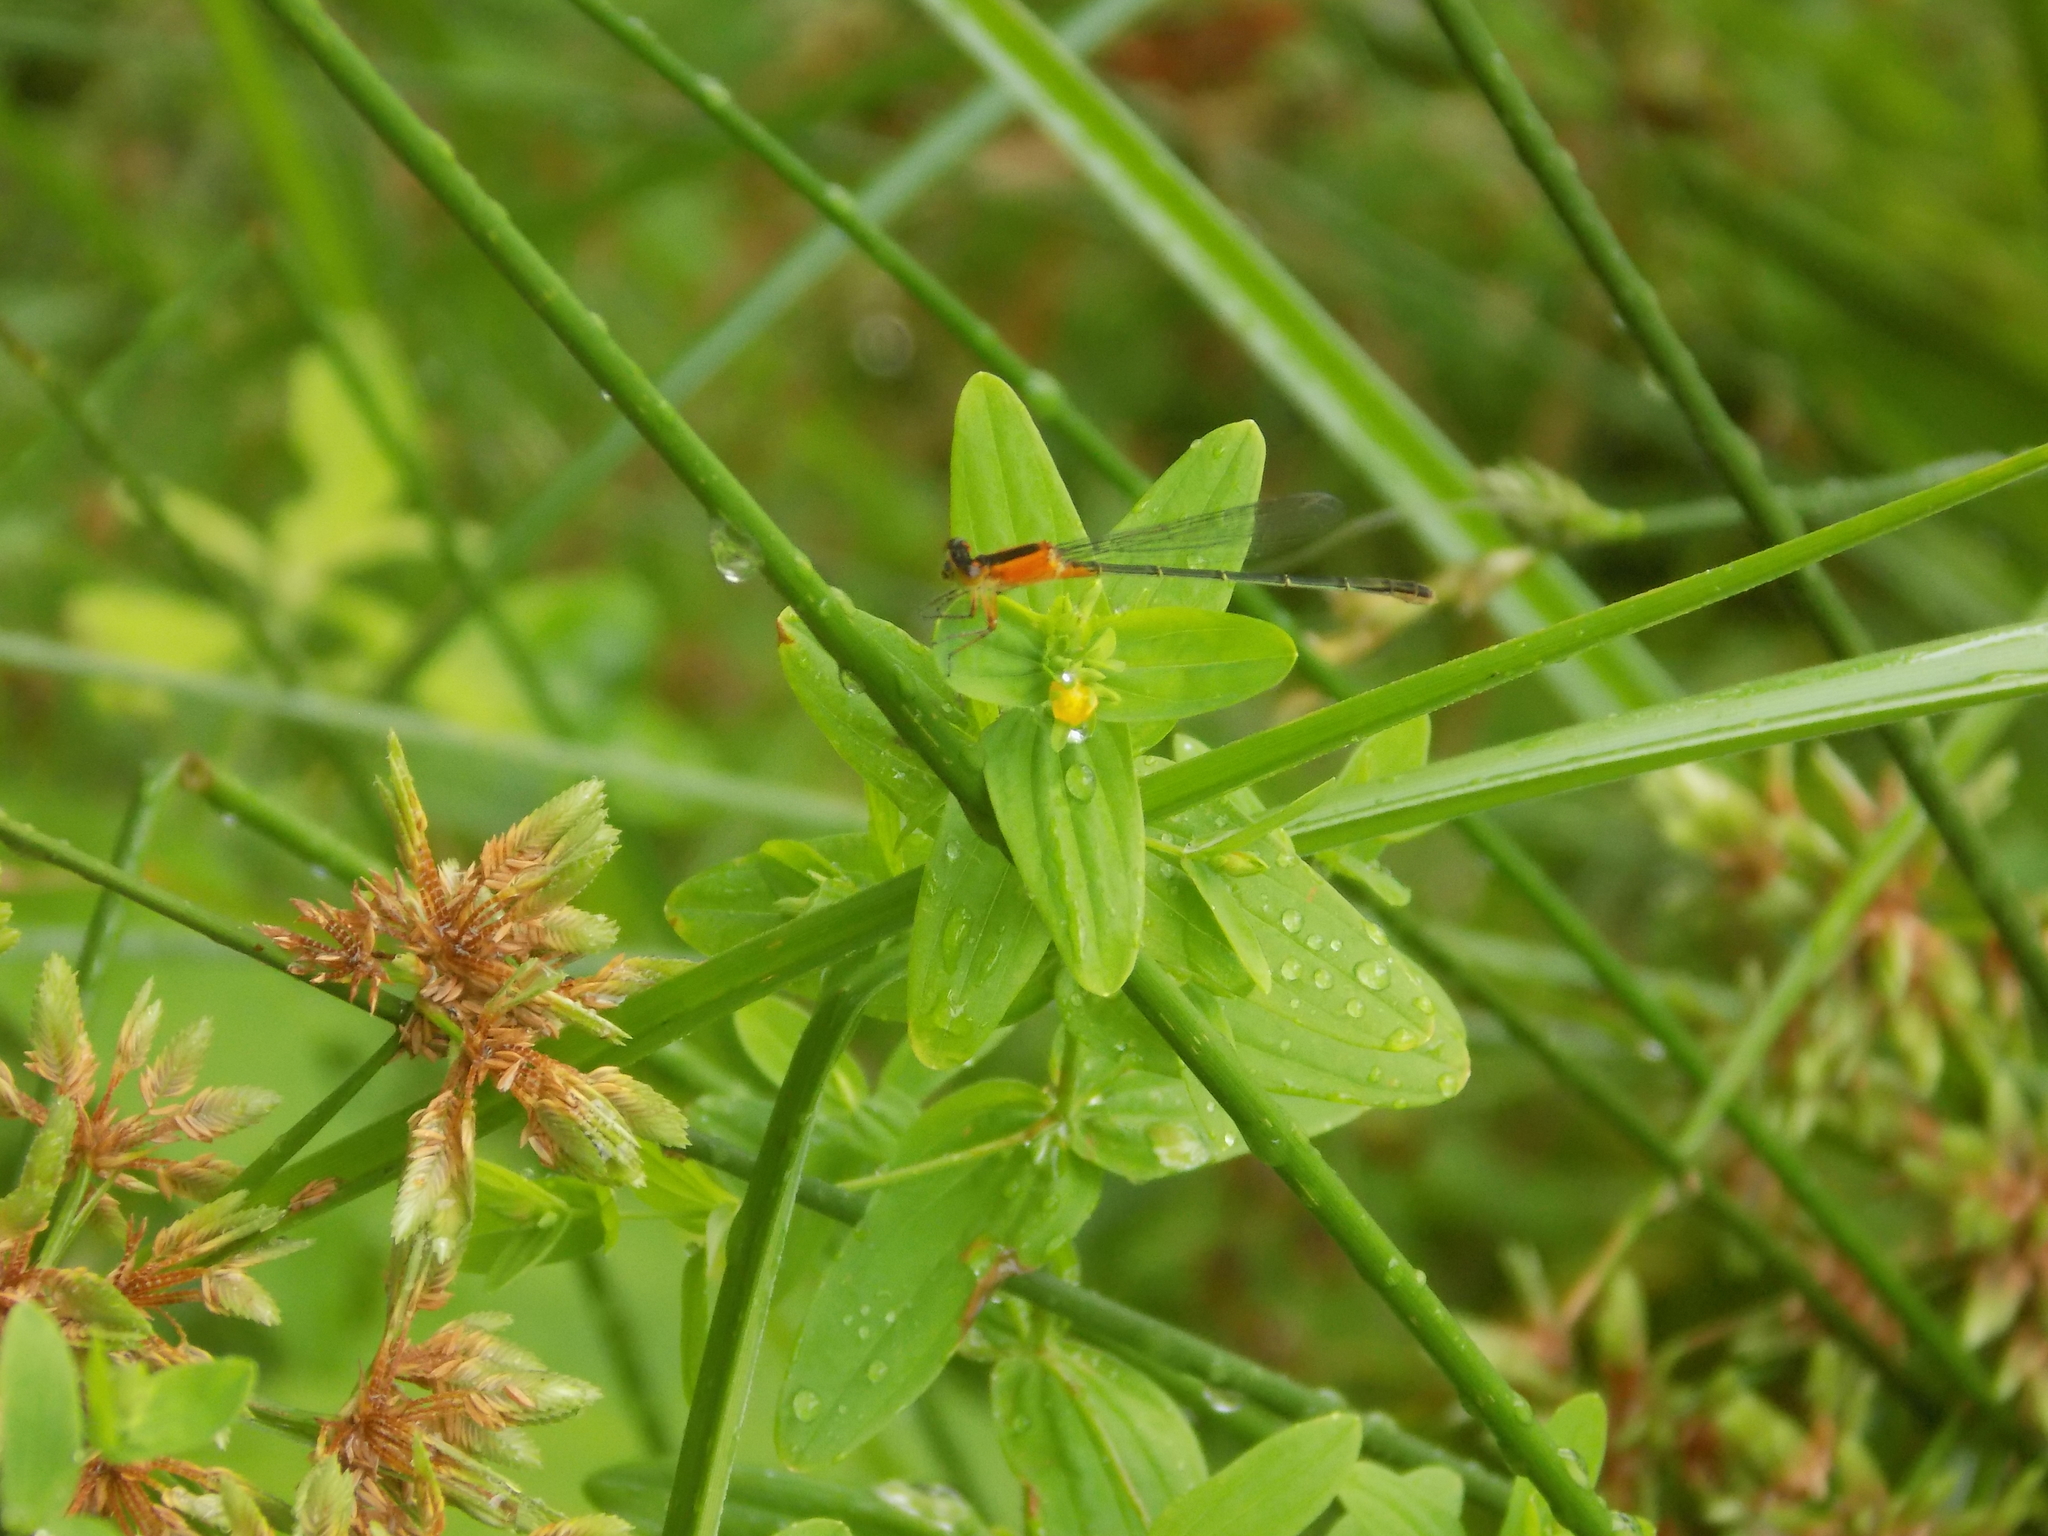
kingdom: Animalia
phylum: Arthropoda
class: Insecta
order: Odonata
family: Coenagrionidae
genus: Ischnura
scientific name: Ischnura ramburii
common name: Rambur's forktail
